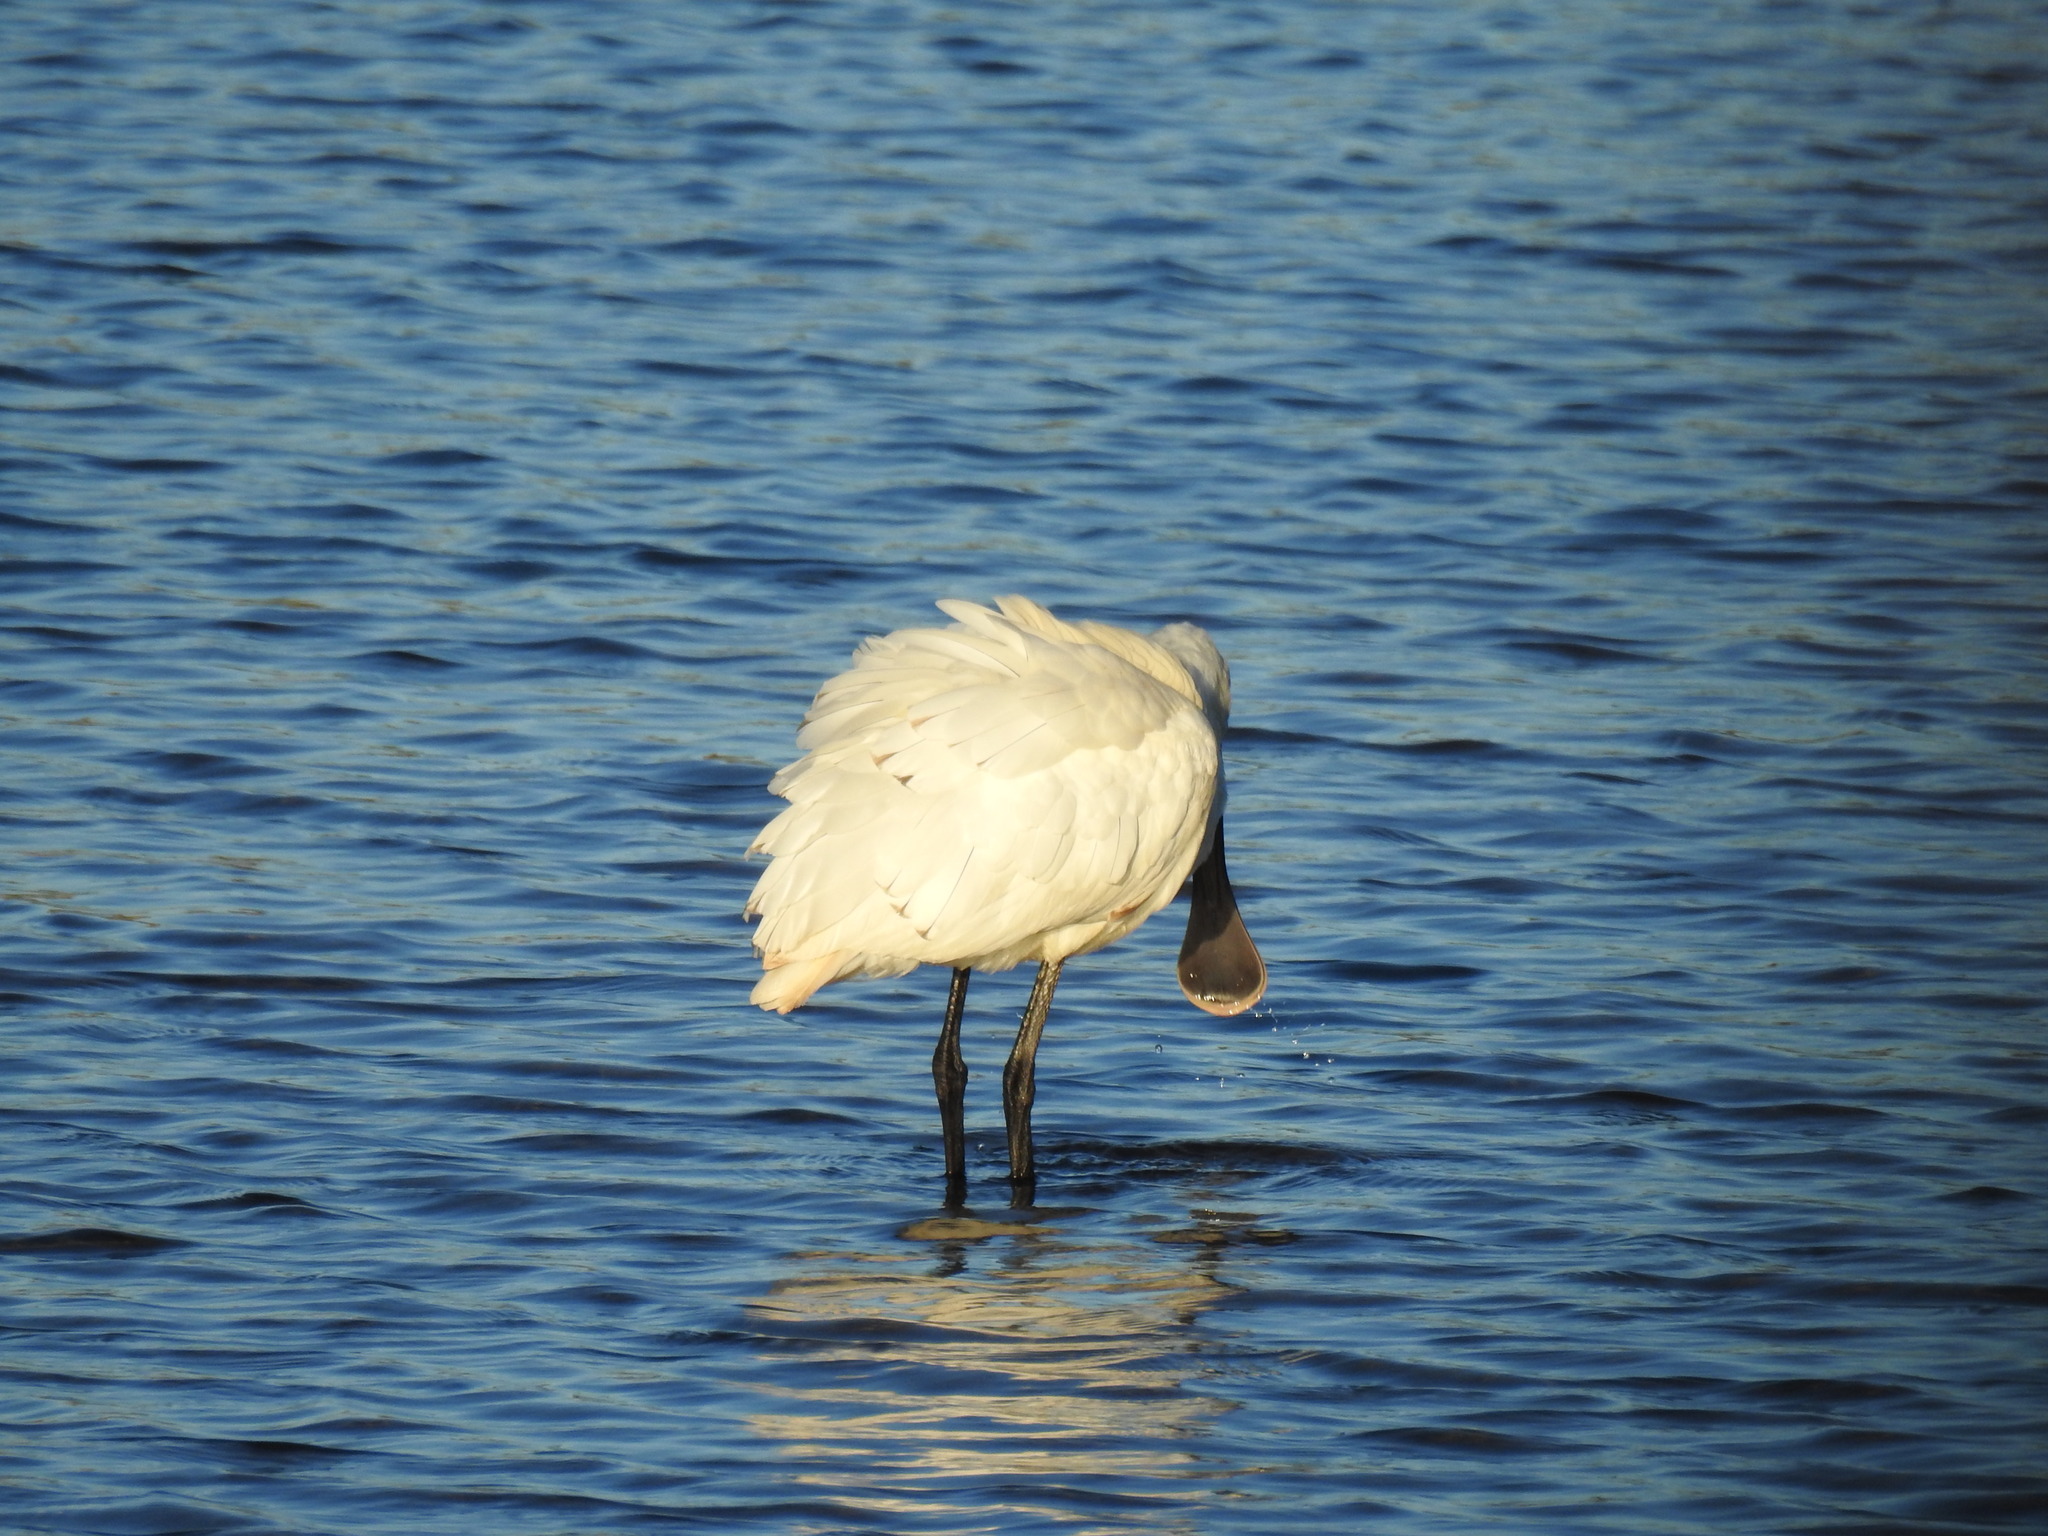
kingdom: Animalia
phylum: Chordata
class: Aves
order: Pelecaniformes
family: Threskiornithidae
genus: Platalea
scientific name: Platalea regia
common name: Royal spoonbill
